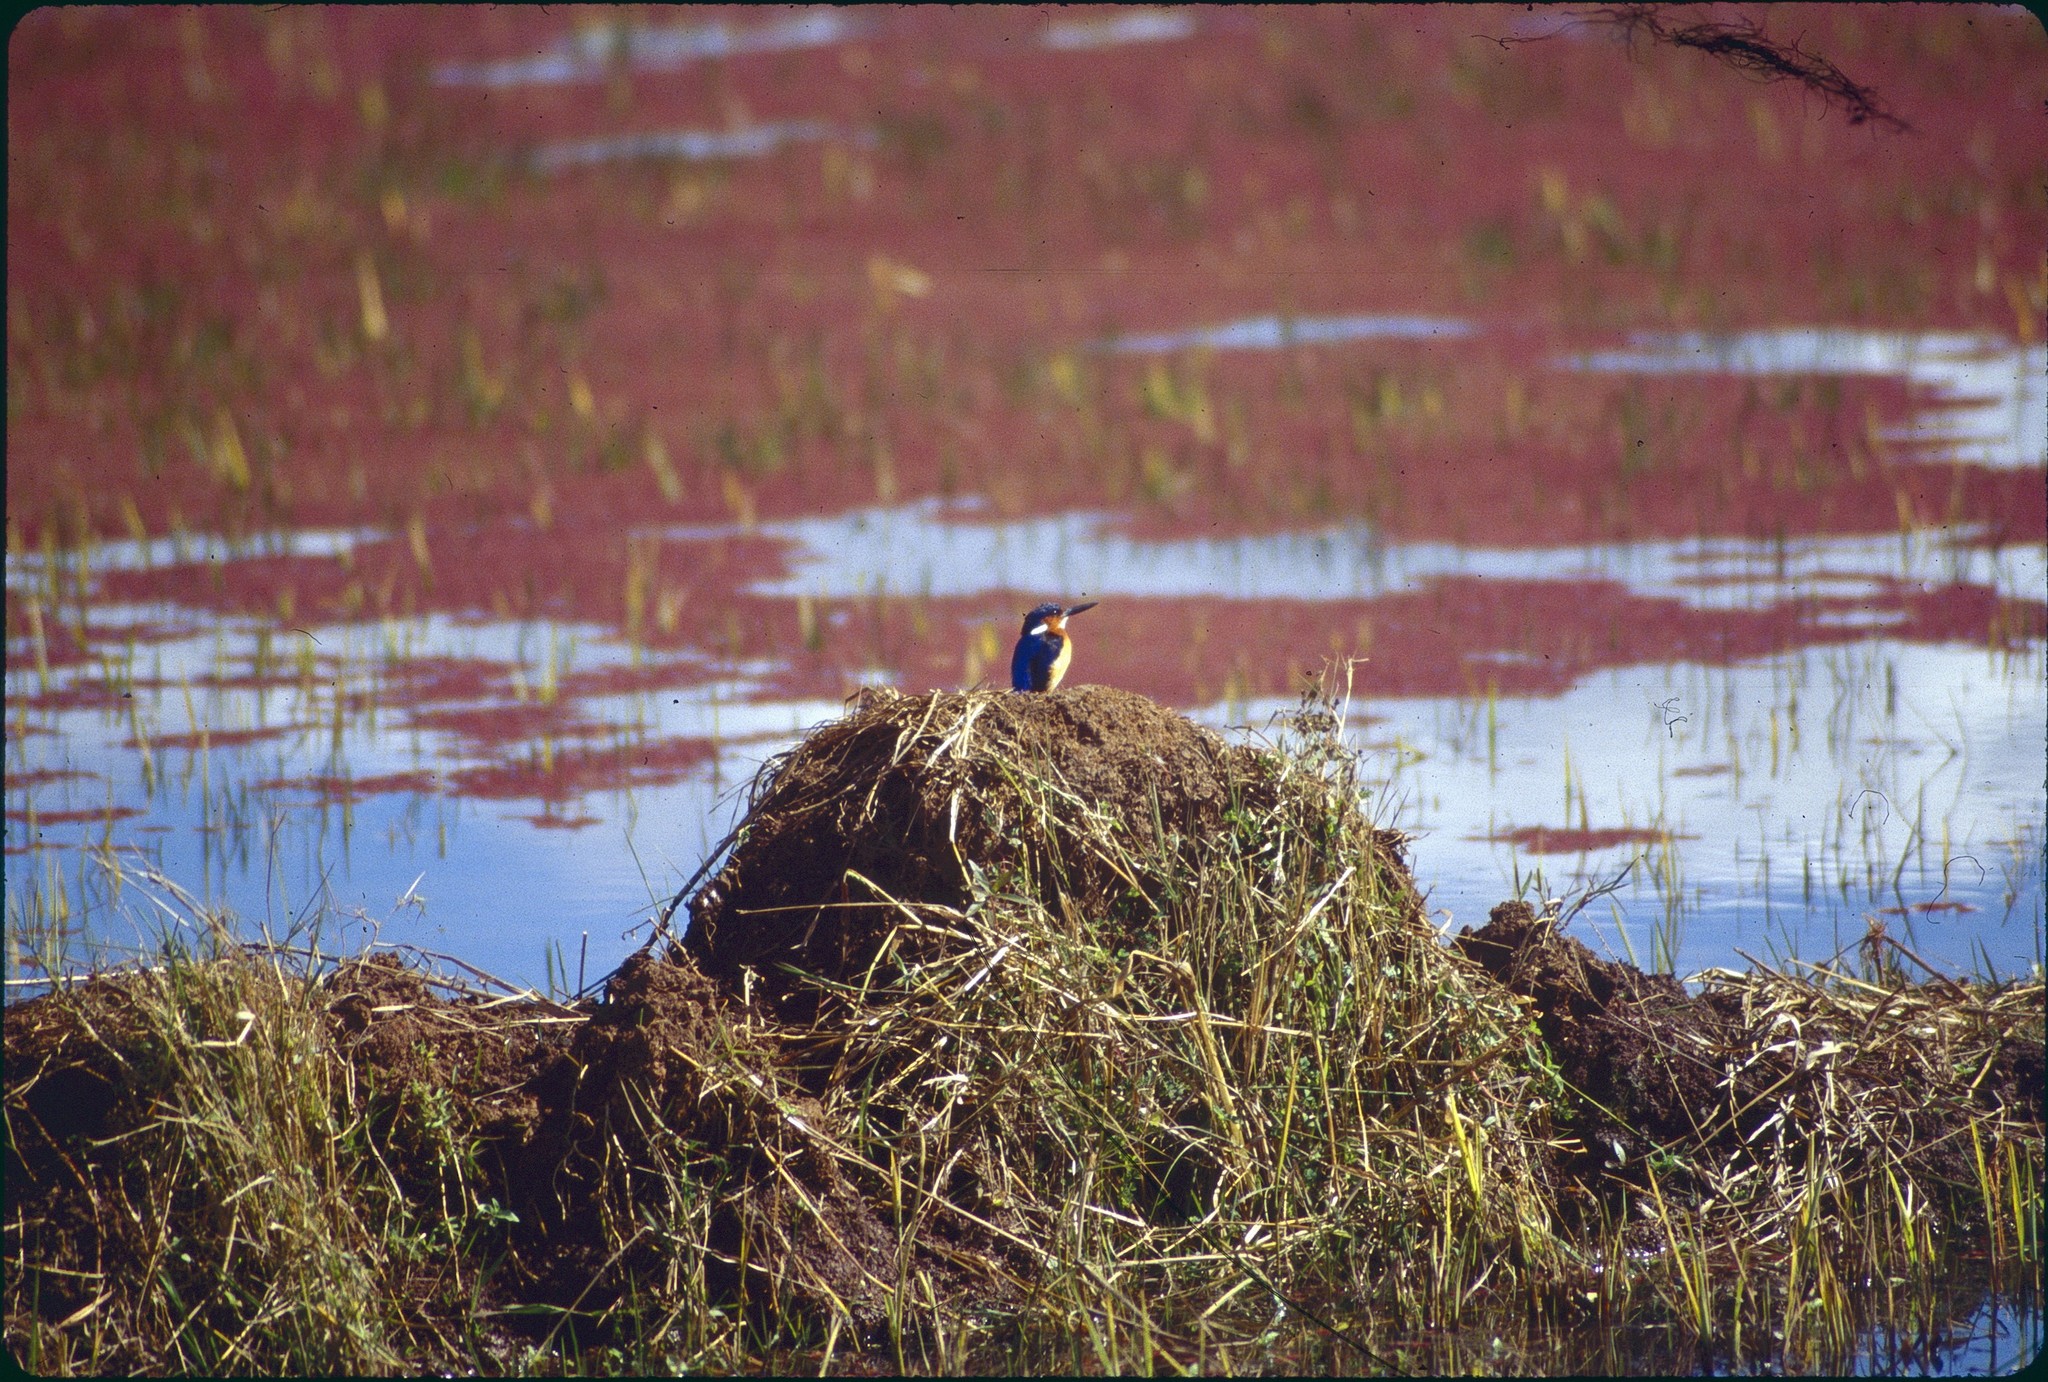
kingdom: Animalia
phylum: Chordata
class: Aves
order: Coraciiformes
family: Alcedinidae
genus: Corythornis
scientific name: Corythornis vintsioides
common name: Malagasy kingfisher
